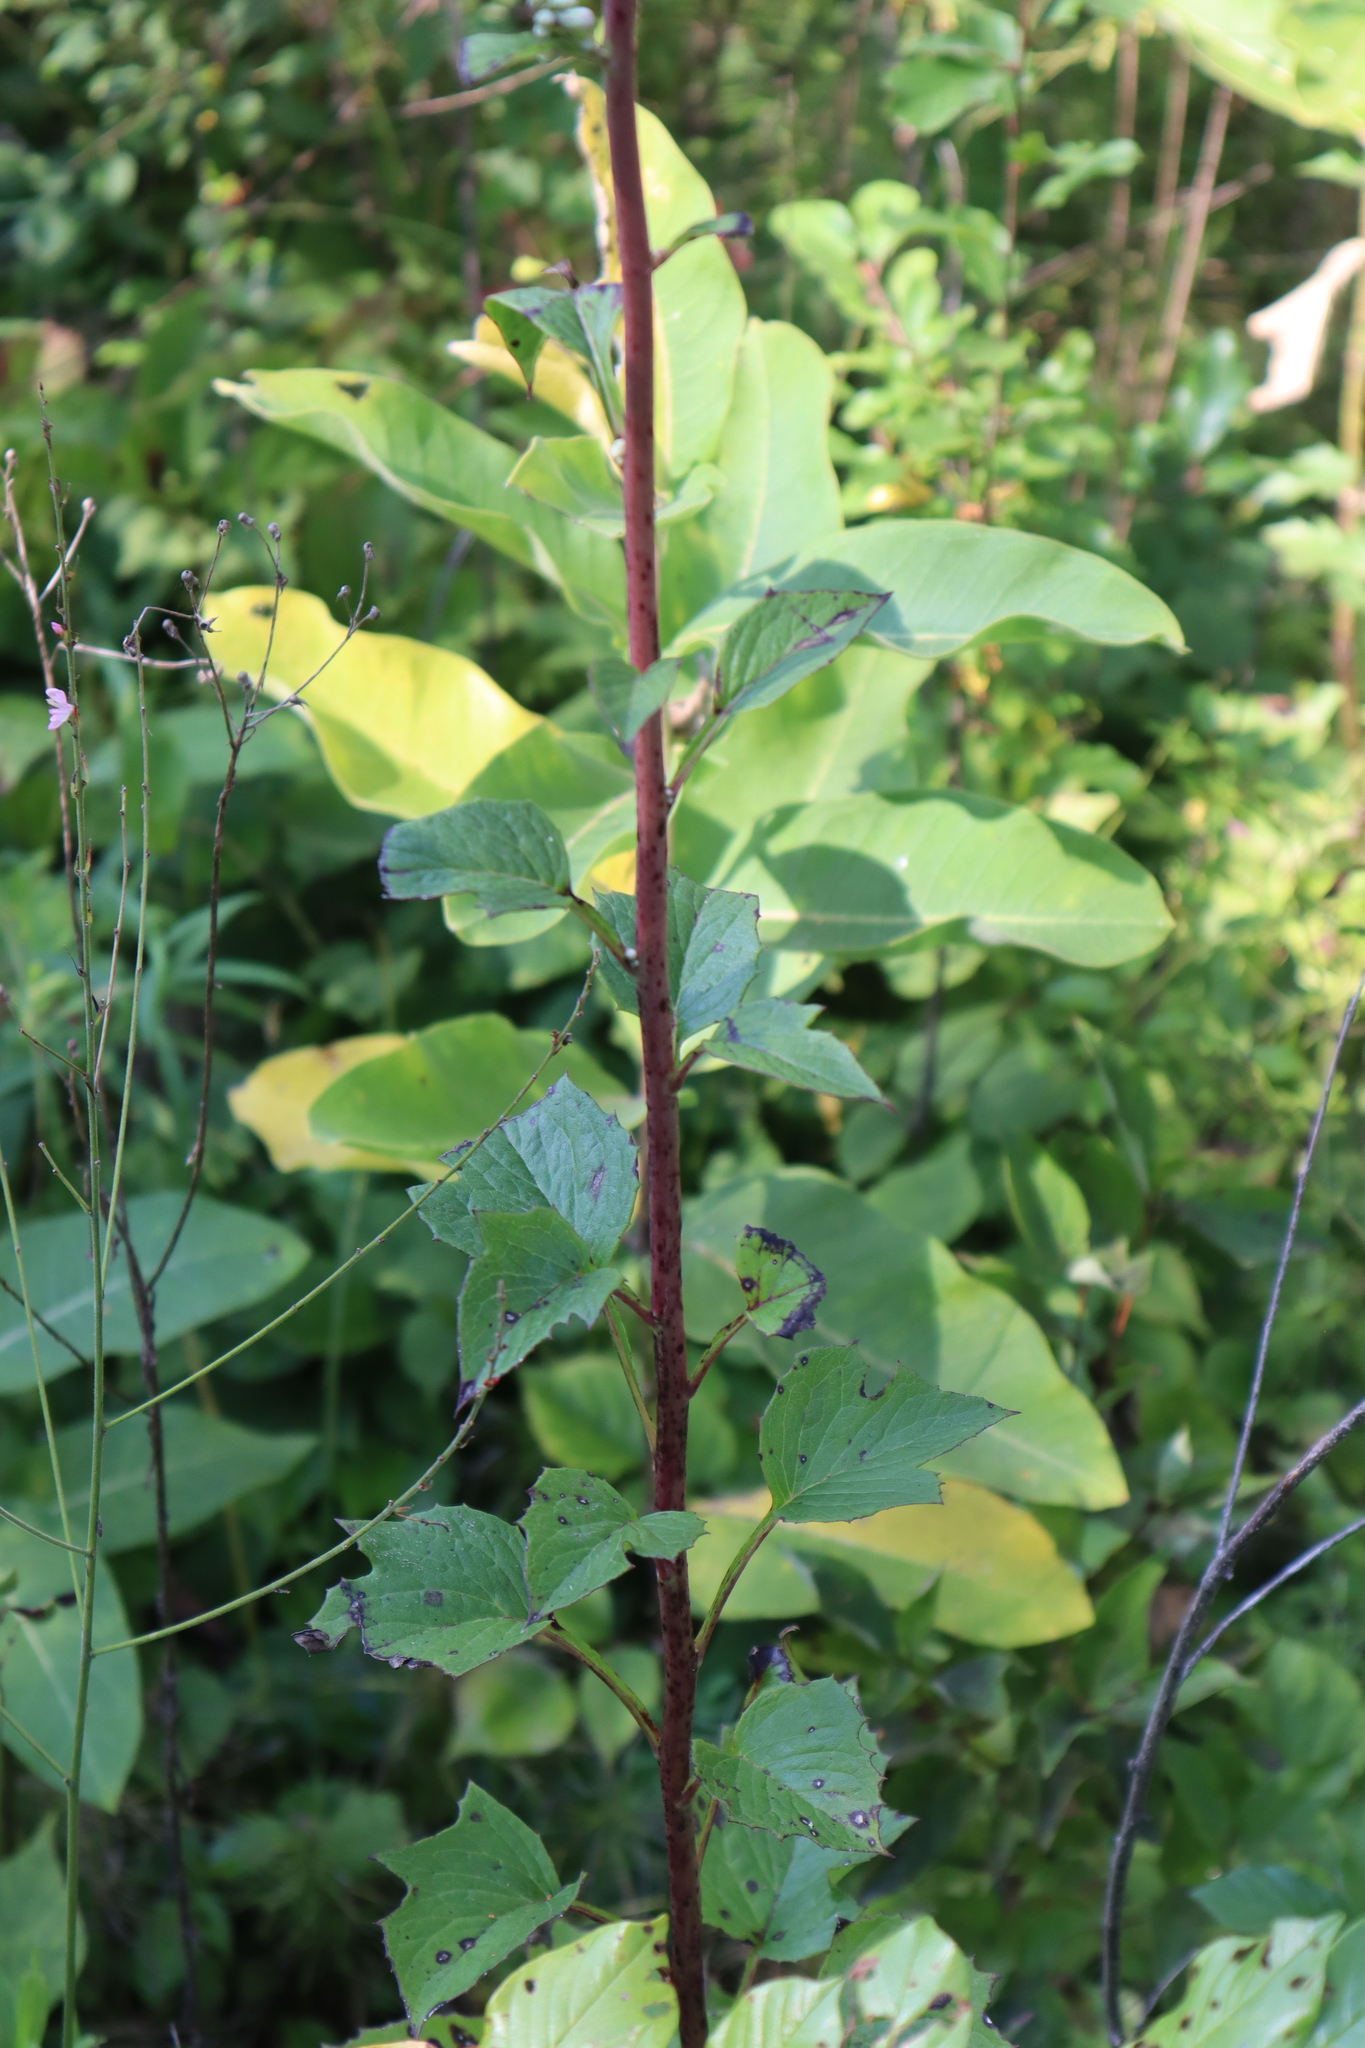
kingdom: Plantae
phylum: Tracheophyta
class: Magnoliopsida
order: Asterales
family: Asteraceae
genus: Nabalus
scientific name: Nabalus albus
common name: White rattlesnakeroot
